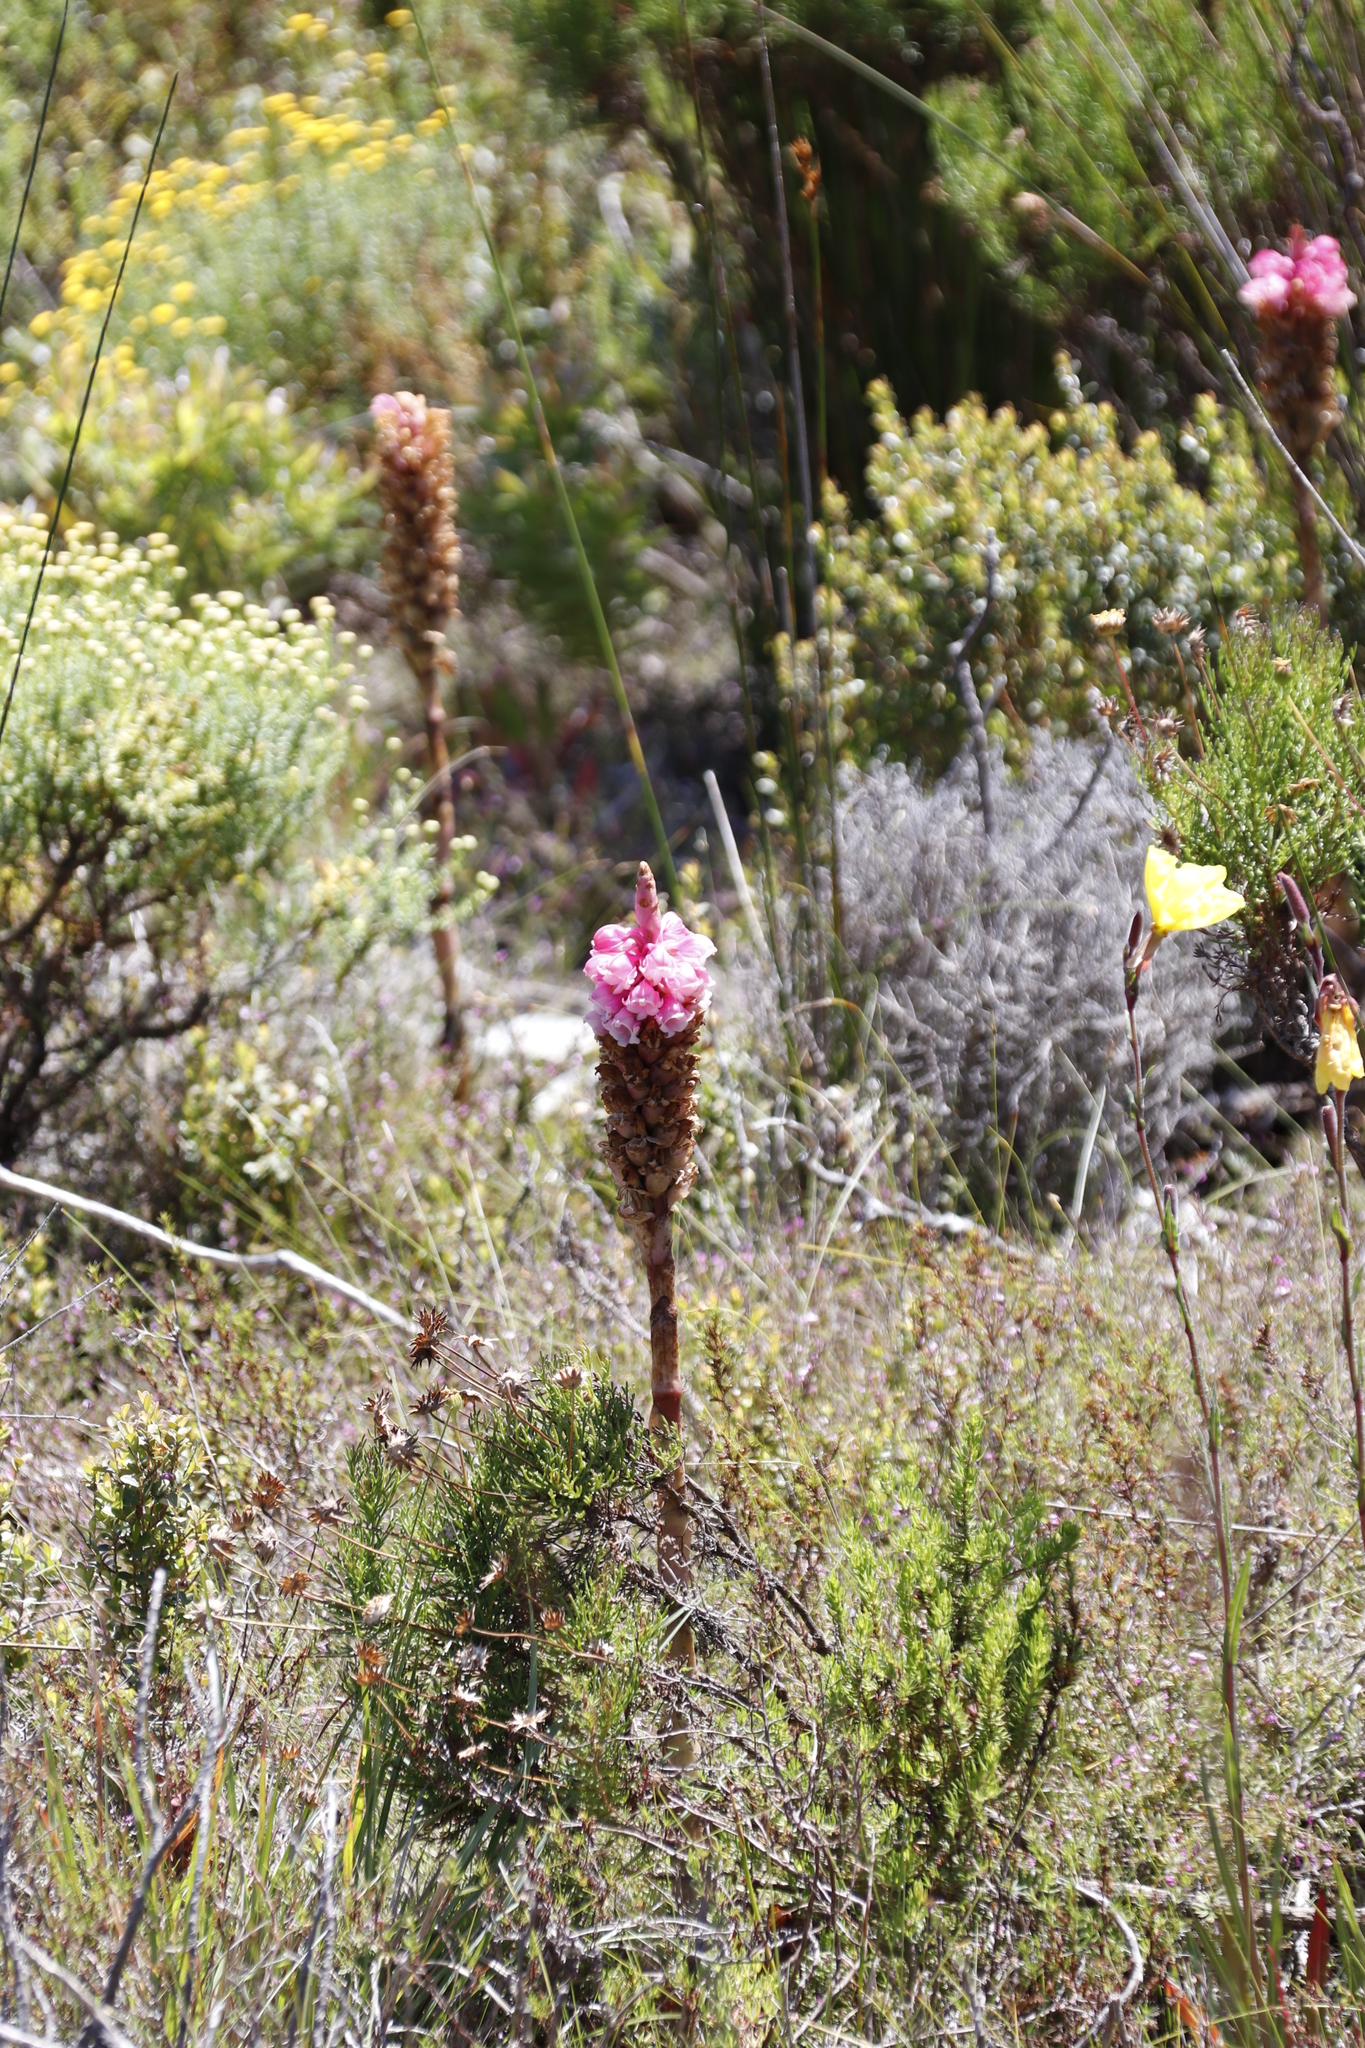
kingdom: Plantae
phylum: Tracheophyta
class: Liliopsida
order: Asparagales
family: Orchidaceae
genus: Satyrium
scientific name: Satyrium carneum
